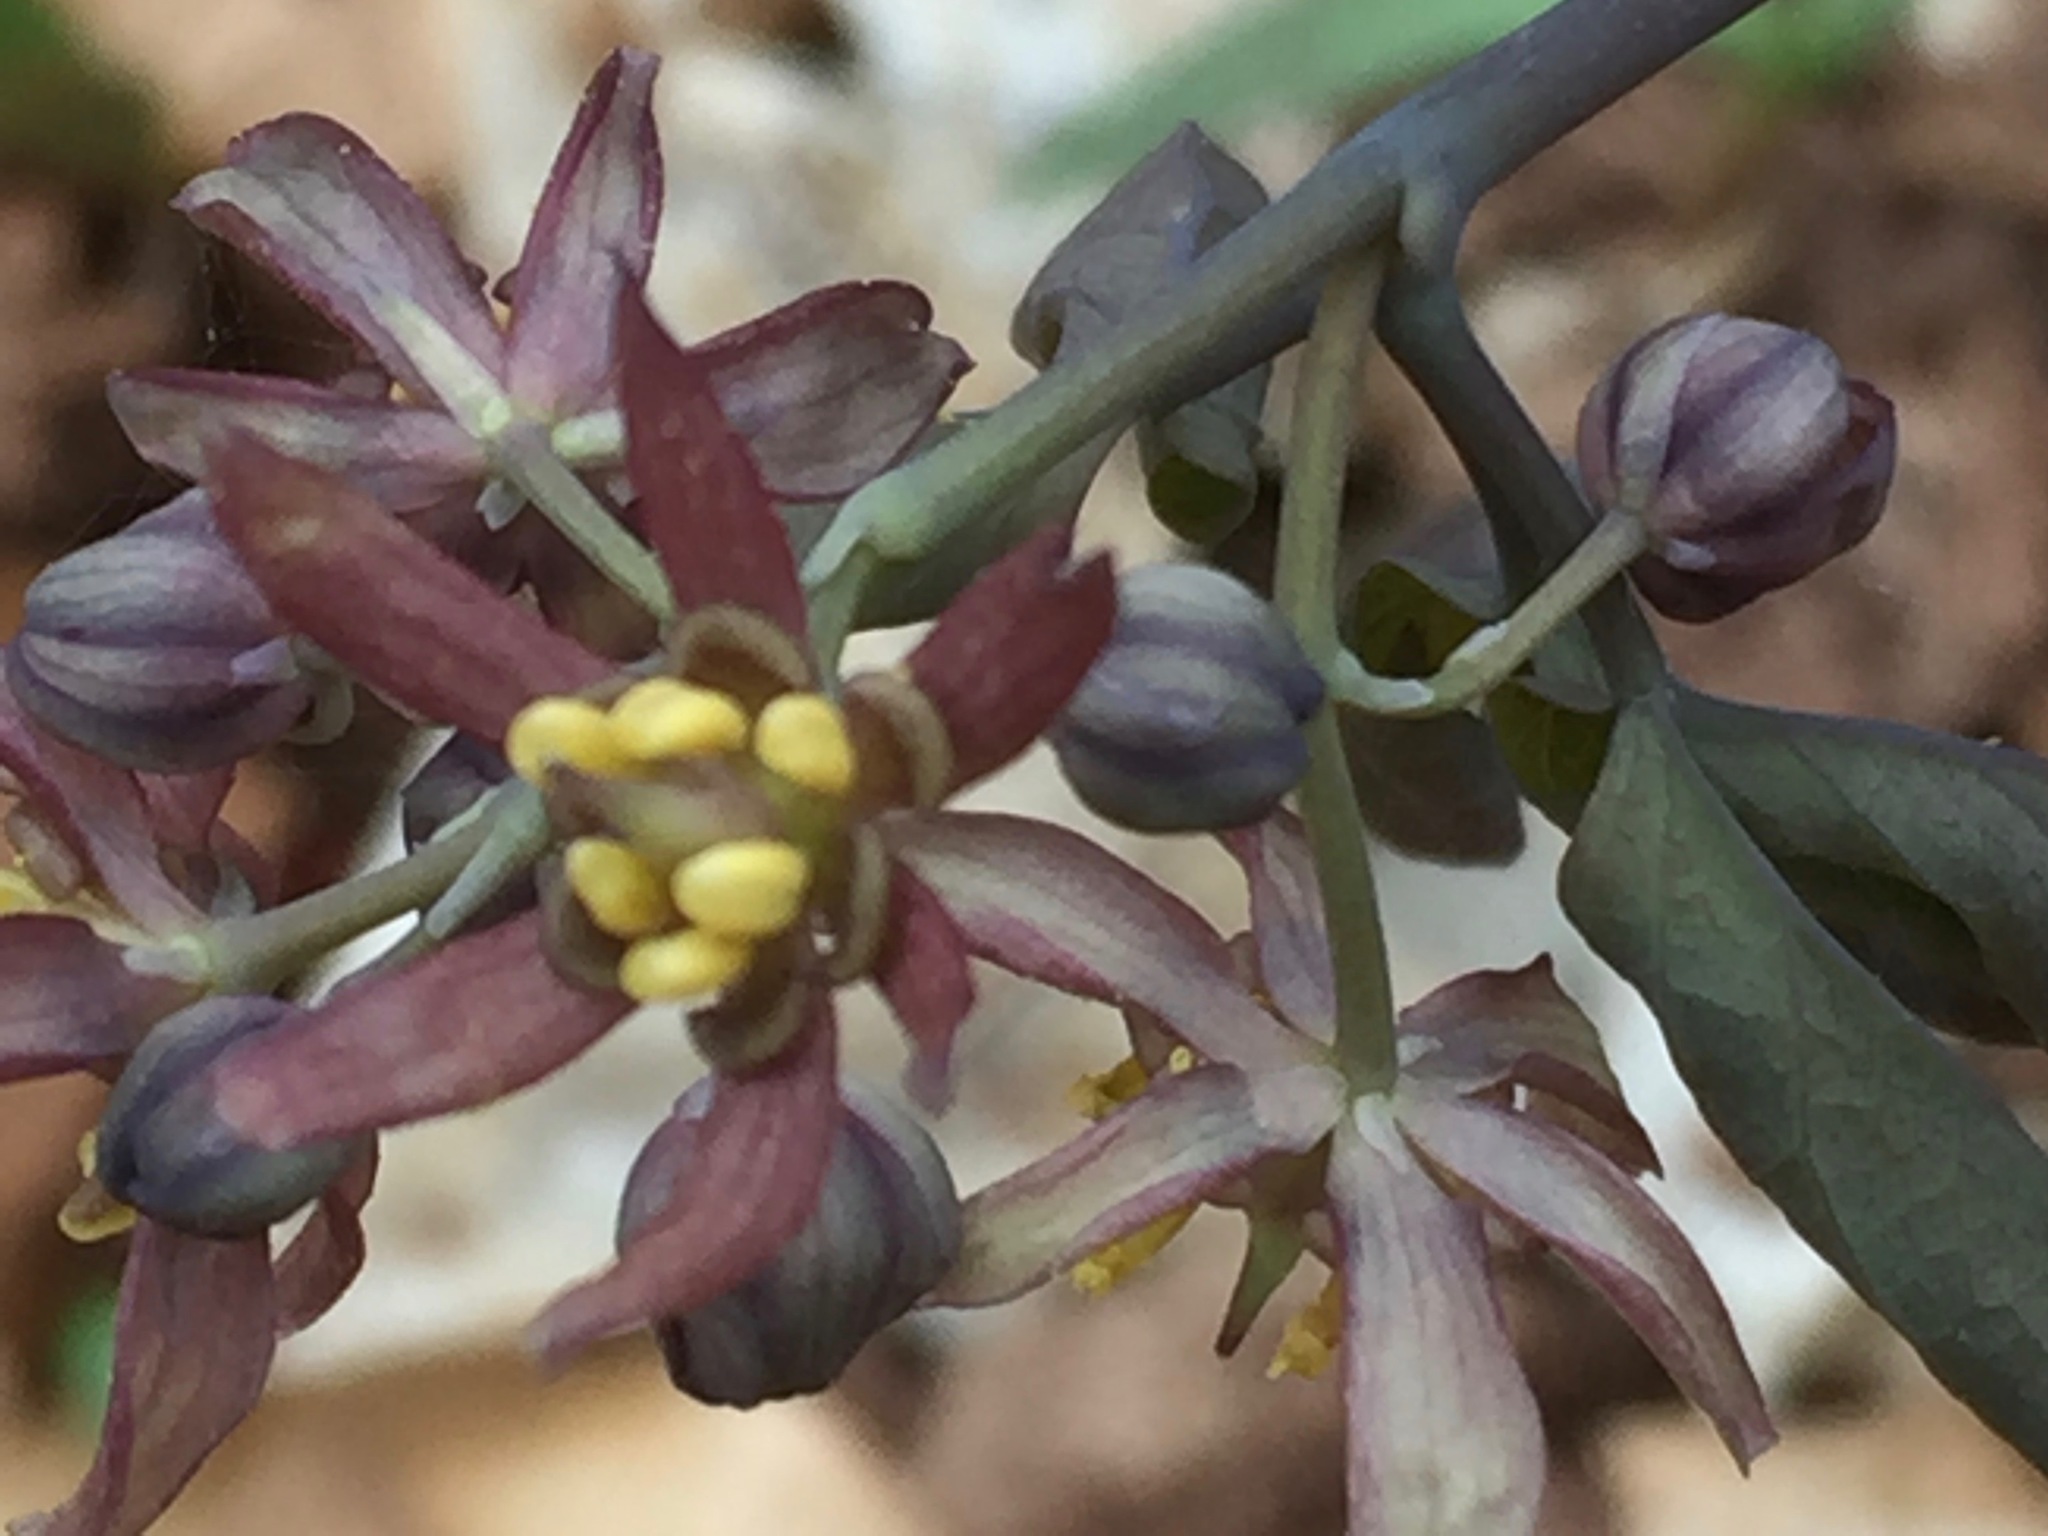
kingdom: Plantae
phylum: Tracheophyta
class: Magnoliopsida
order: Ranunculales
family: Berberidaceae
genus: Caulophyllum
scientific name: Caulophyllum giganteum
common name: Blue cohosh
